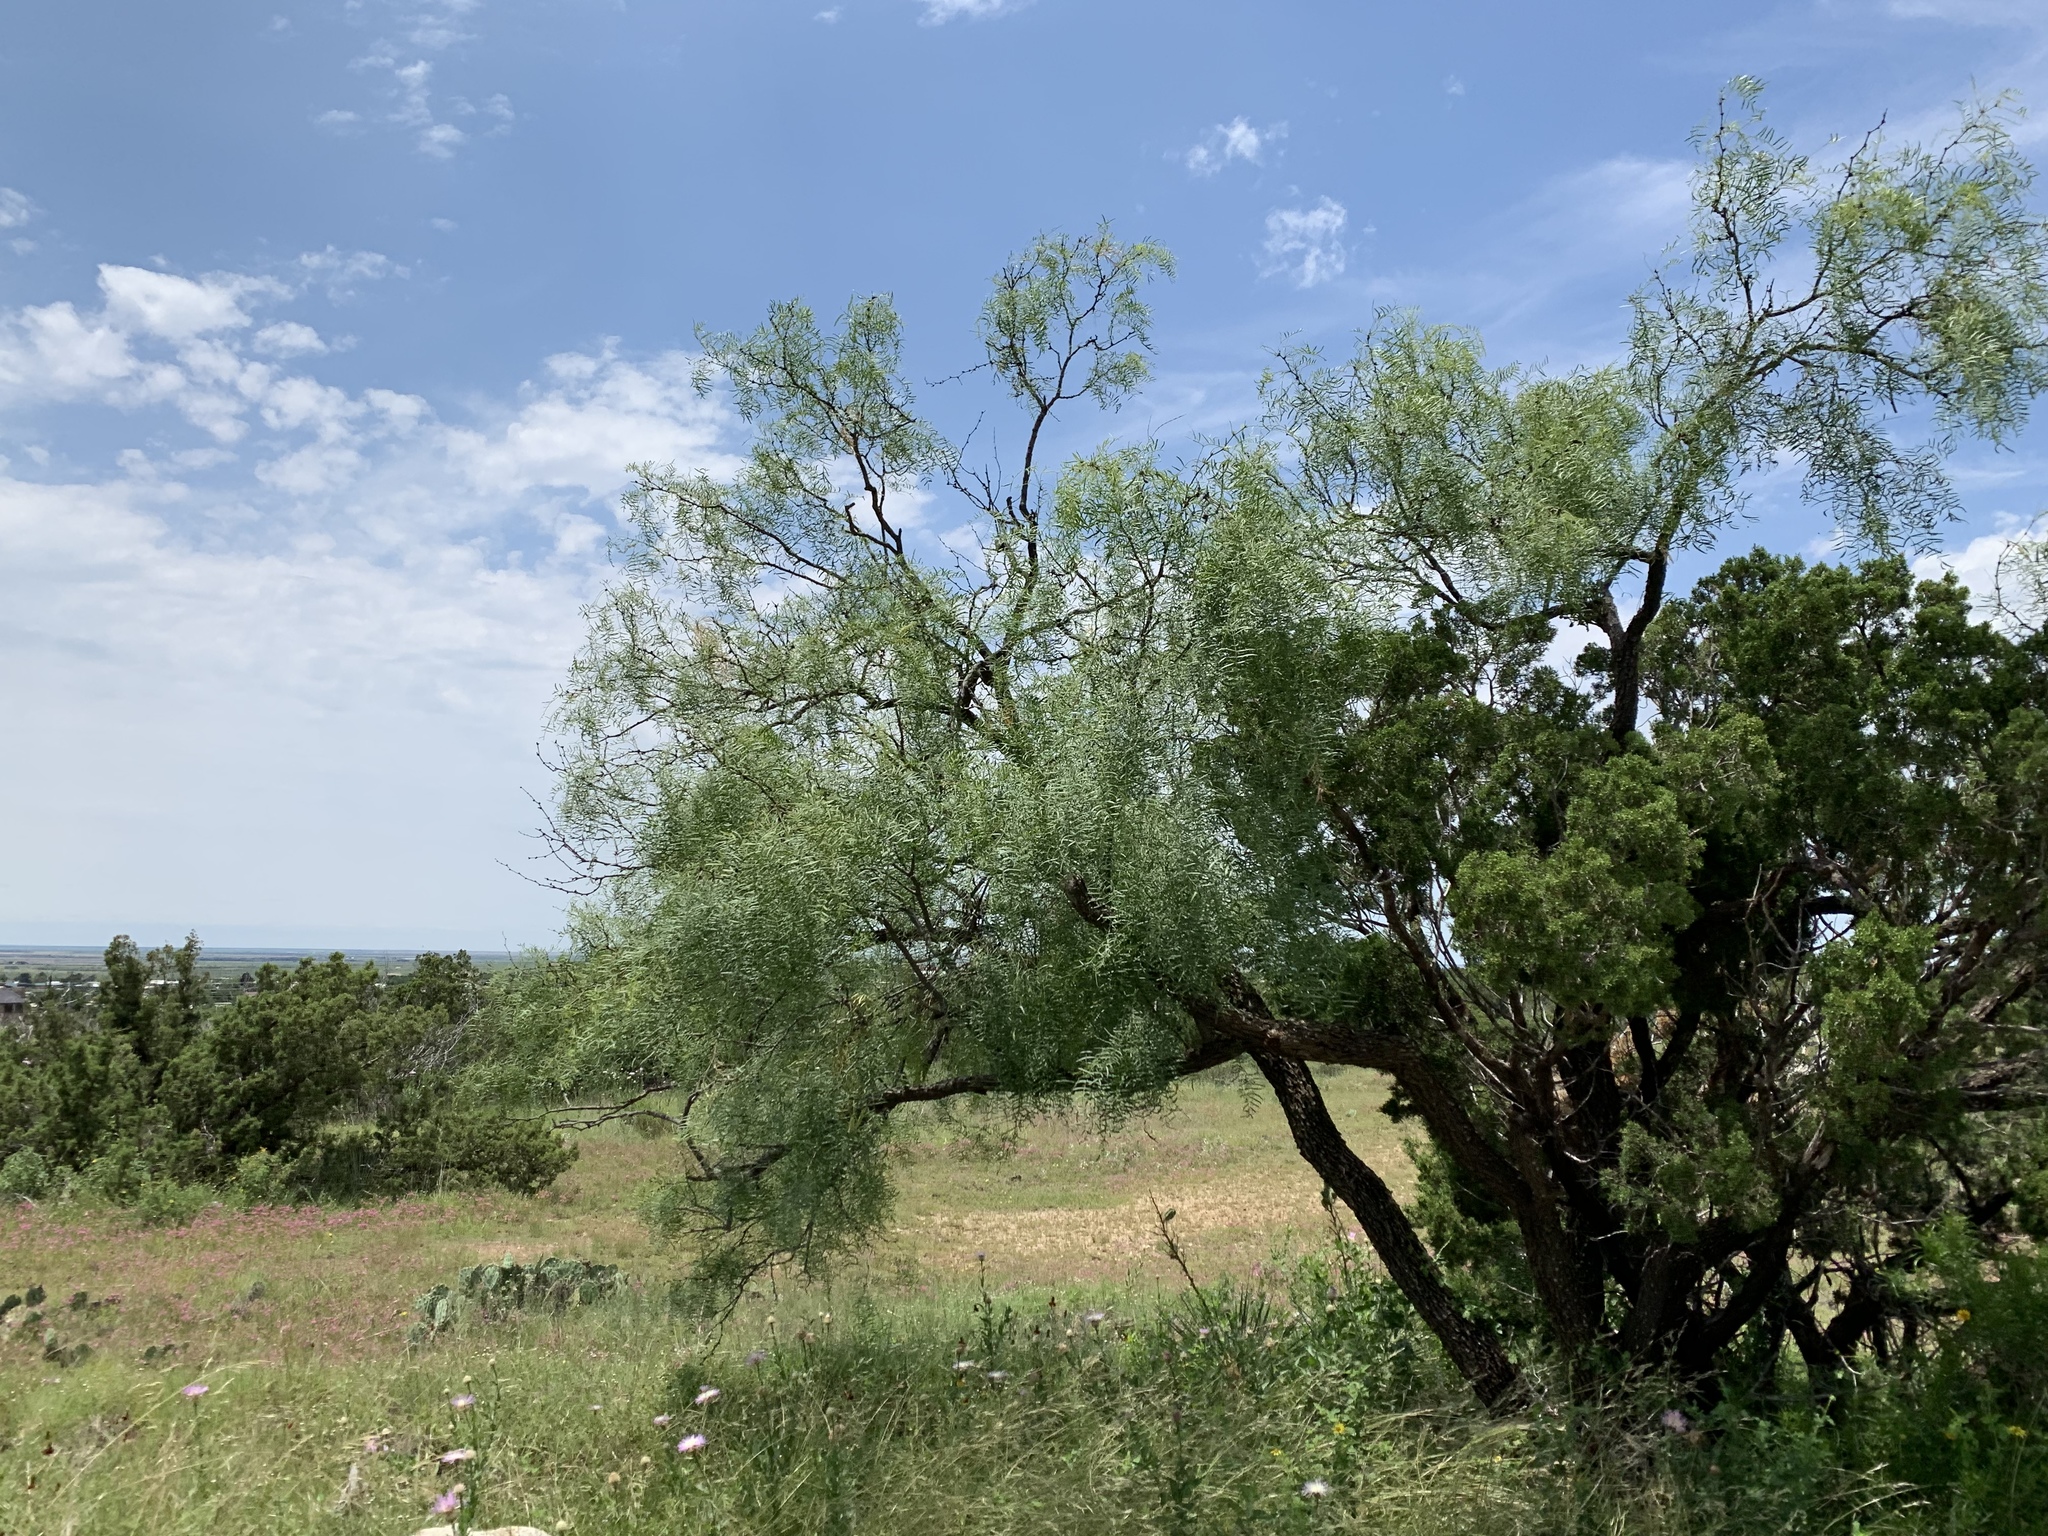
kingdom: Plantae
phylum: Tracheophyta
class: Magnoliopsida
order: Fabales
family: Fabaceae
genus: Prosopis
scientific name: Prosopis glandulosa
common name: Honey mesquite
